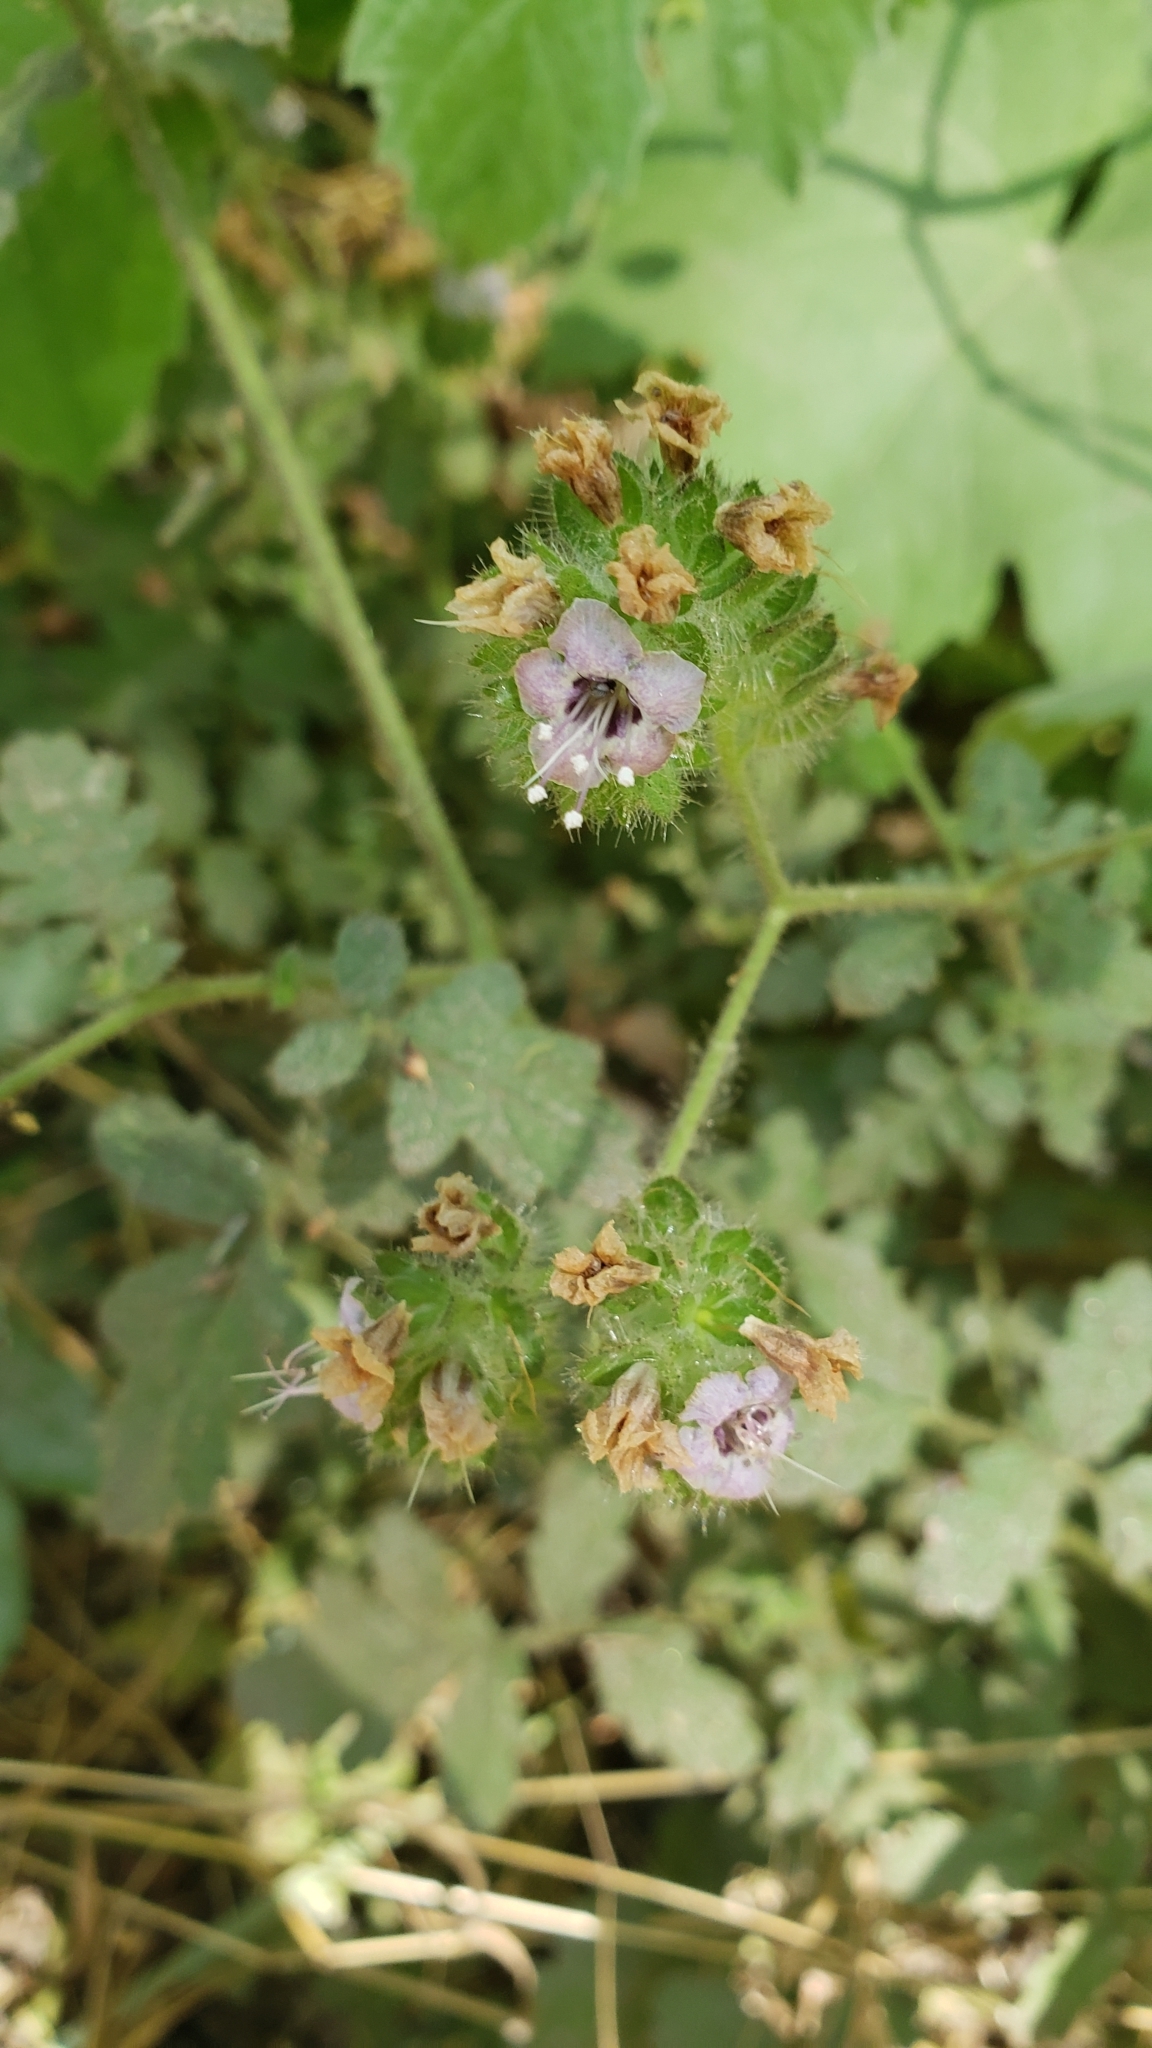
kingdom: Plantae
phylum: Tracheophyta
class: Magnoliopsida
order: Boraginales
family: Hydrophyllaceae
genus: Phacelia
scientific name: Phacelia ramosissima
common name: Branching phacelia
